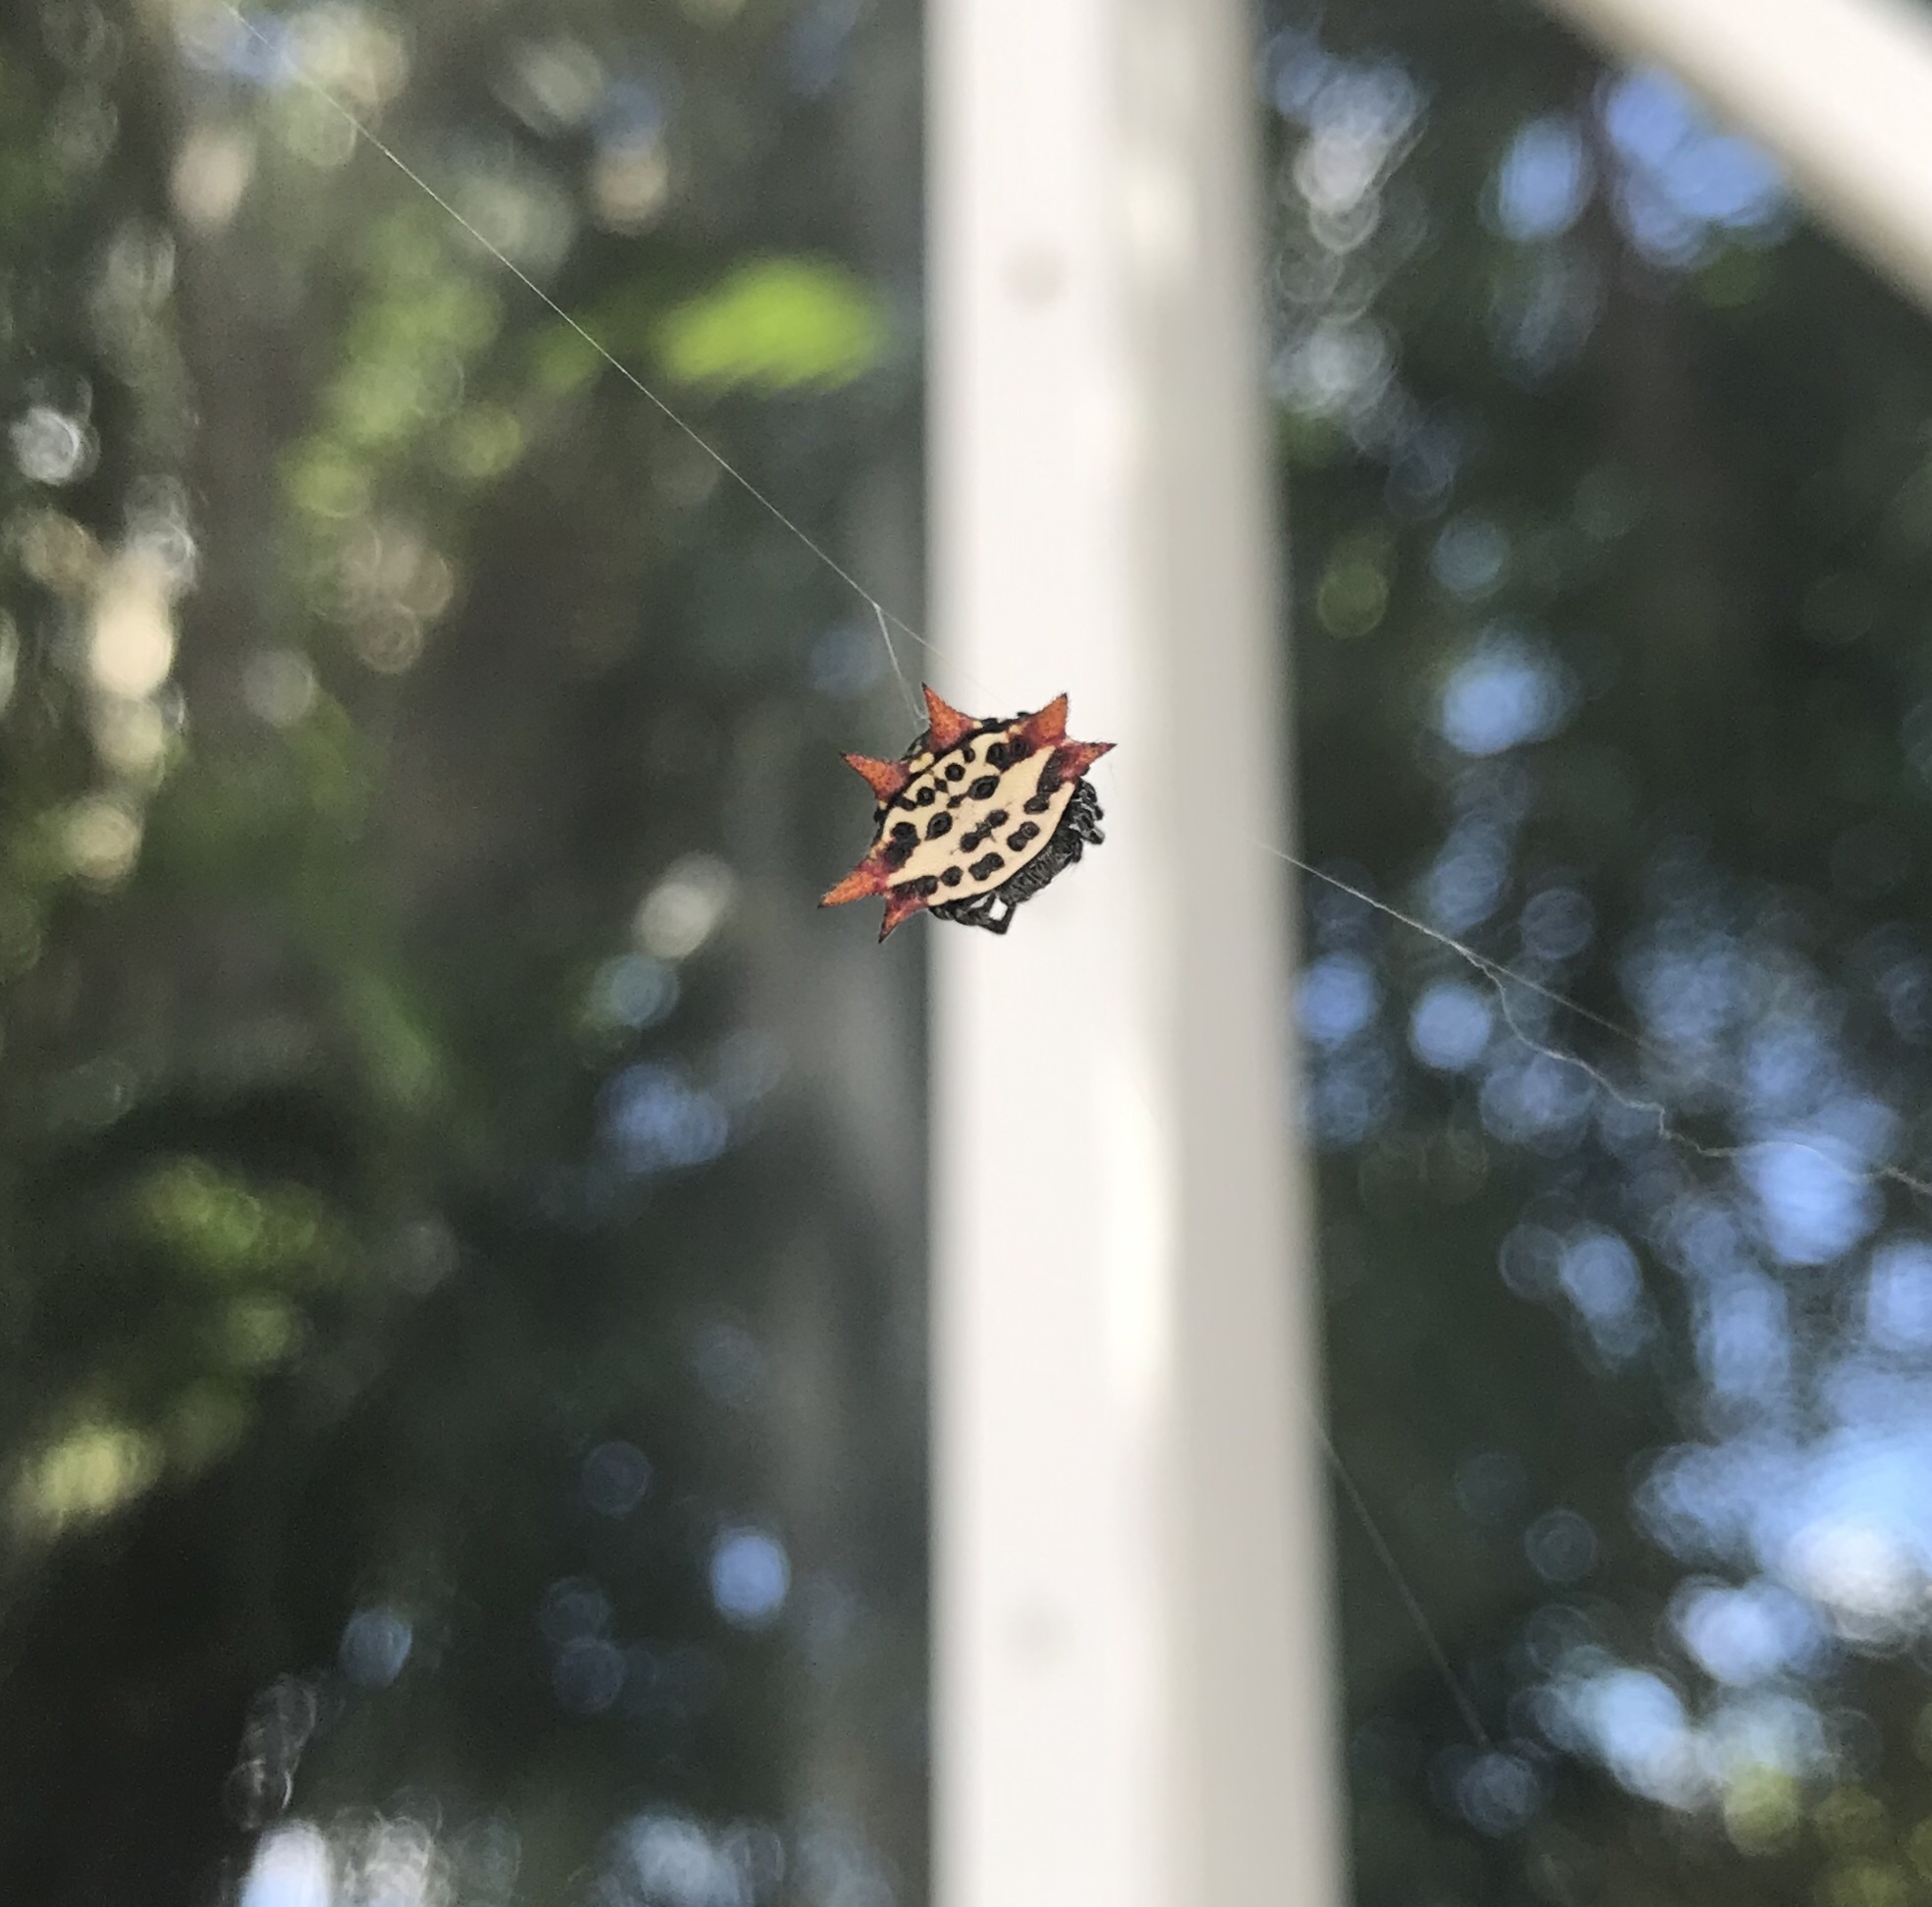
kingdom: Animalia
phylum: Arthropoda
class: Arachnida
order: Araneae
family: Araneidae
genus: Gasteracantha
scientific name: Gasteracantha cancriformis
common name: Orb weavers
